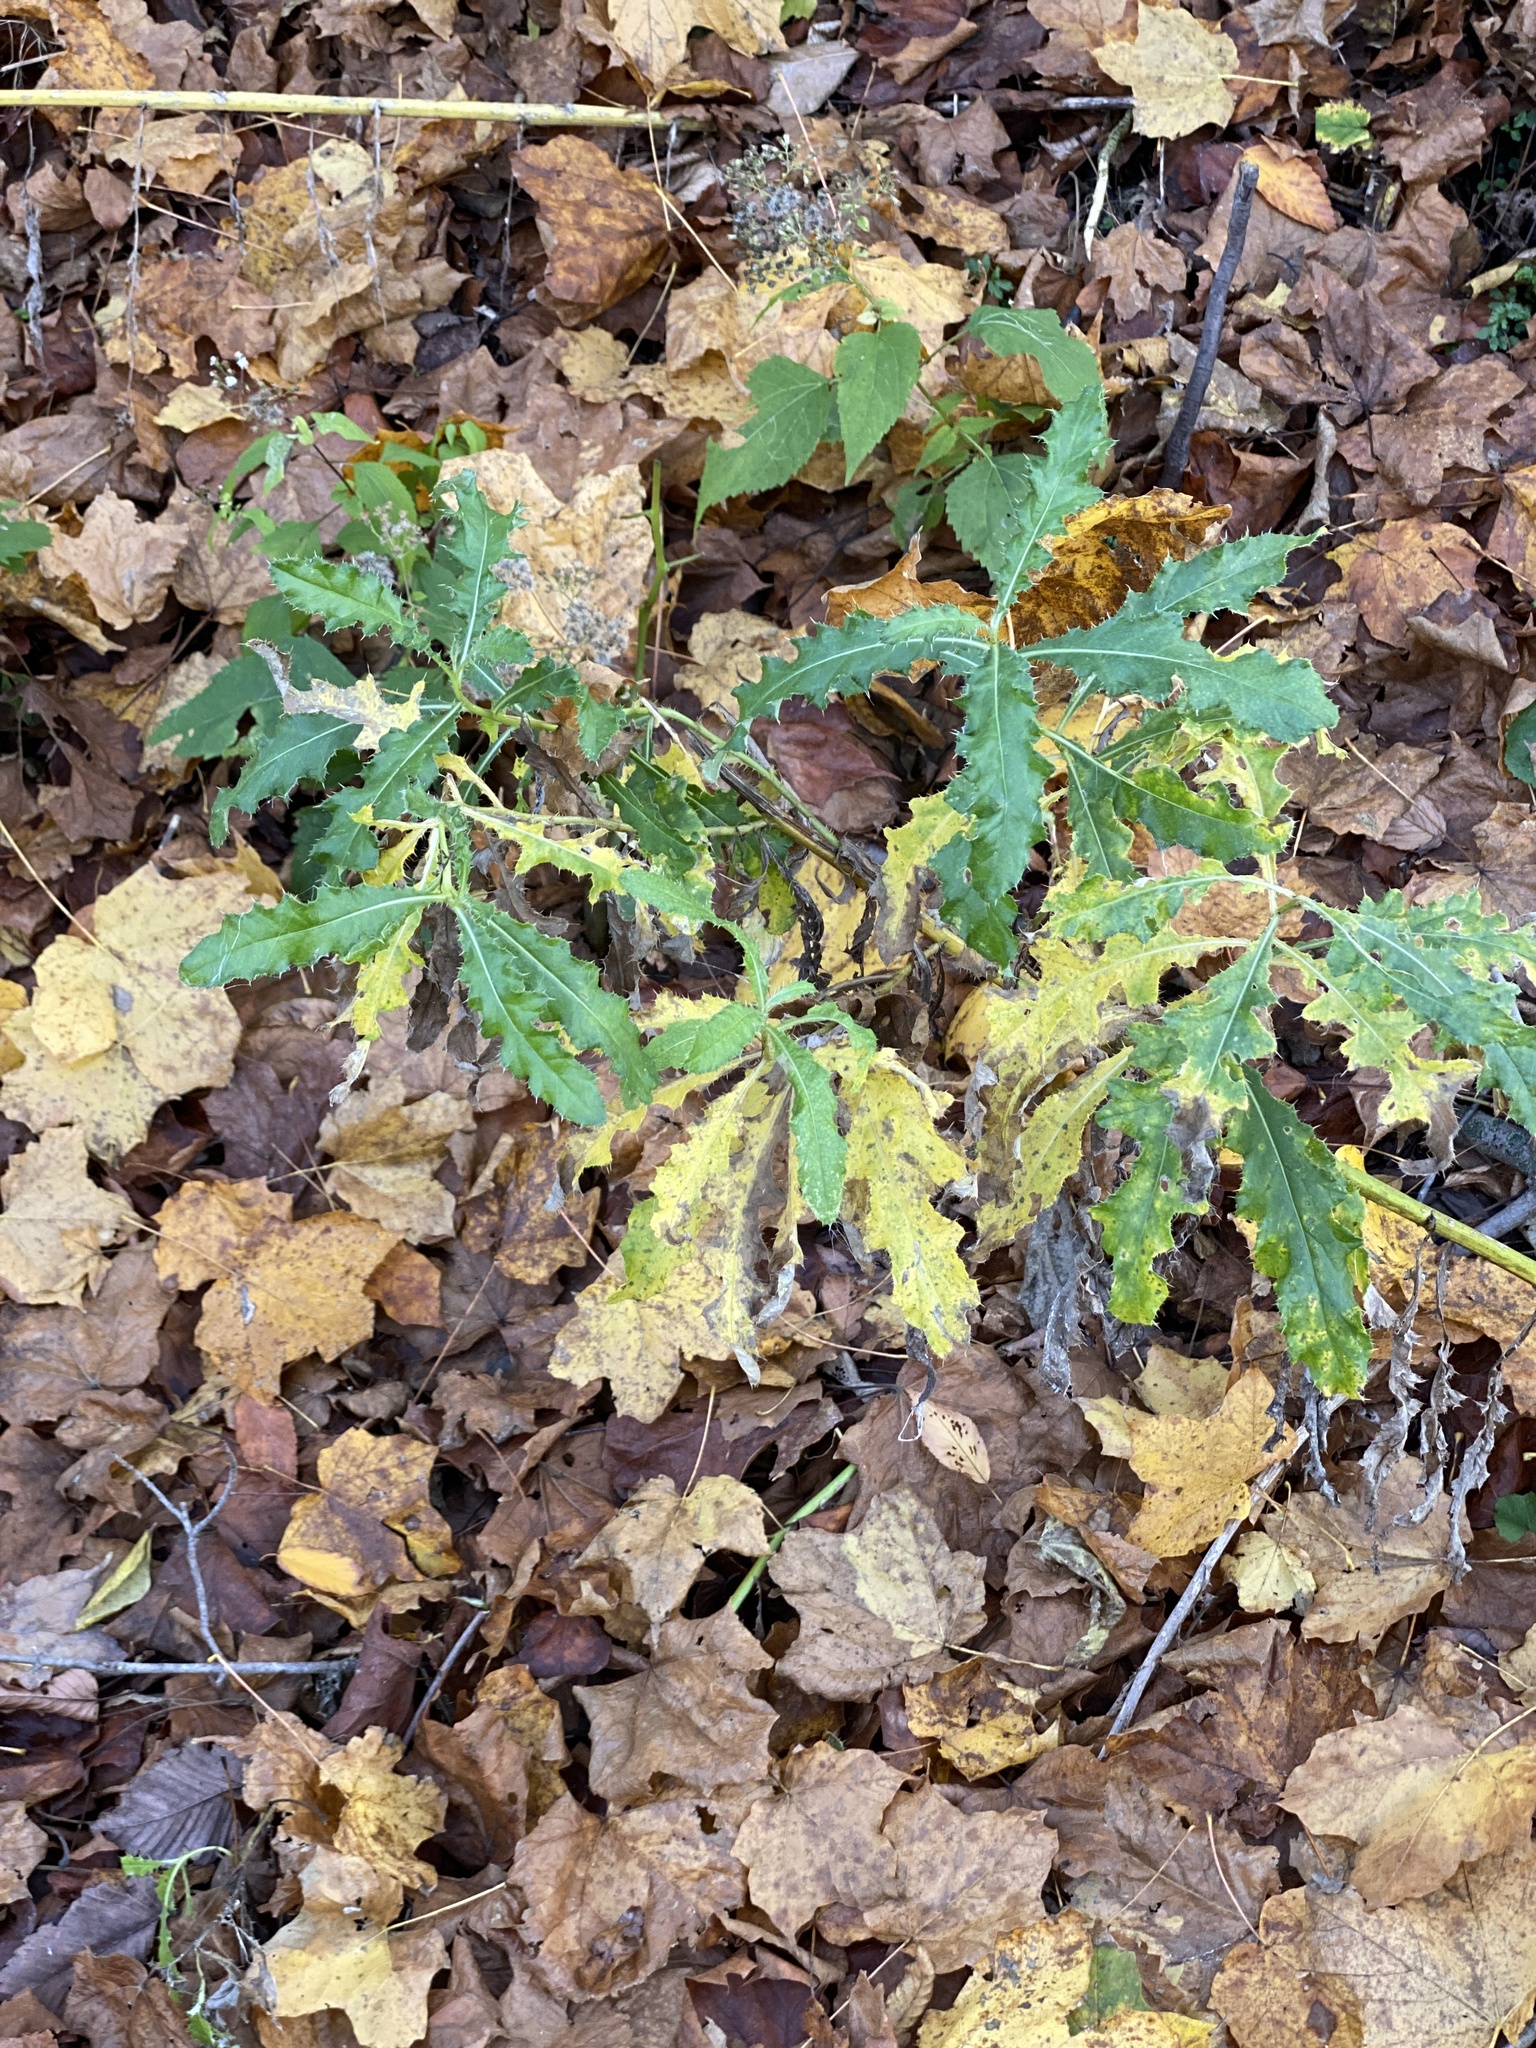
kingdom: Plantae
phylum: Tracheophyta
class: Magnoliopsida
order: Asterales
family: Asteraceae
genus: Cirsium
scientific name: Cirsium arvense
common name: Creeping thistle
